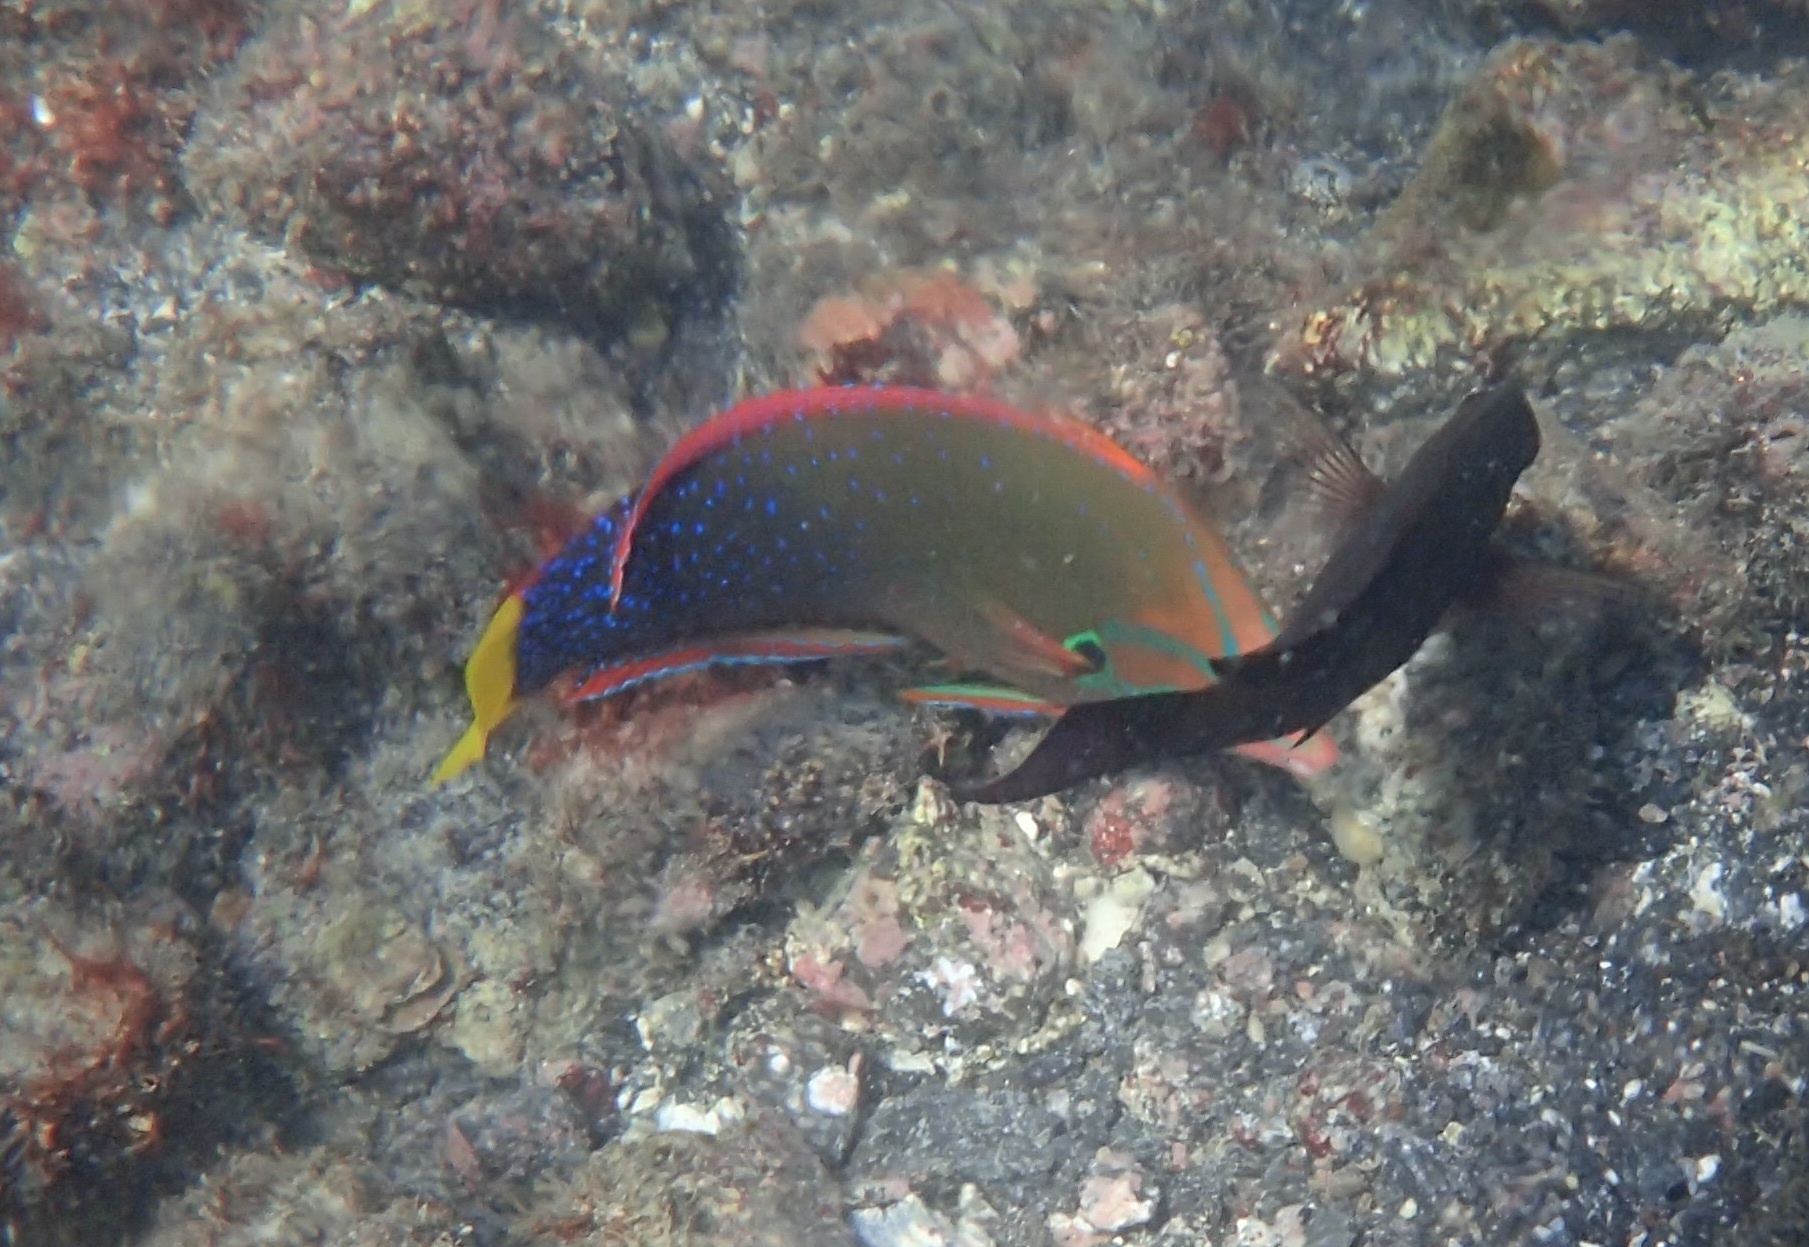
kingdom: Animalia
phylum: Chordata
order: Perciformes
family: Labridae
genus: Coris
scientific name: Coris gaimard
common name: Yellowtail coris
